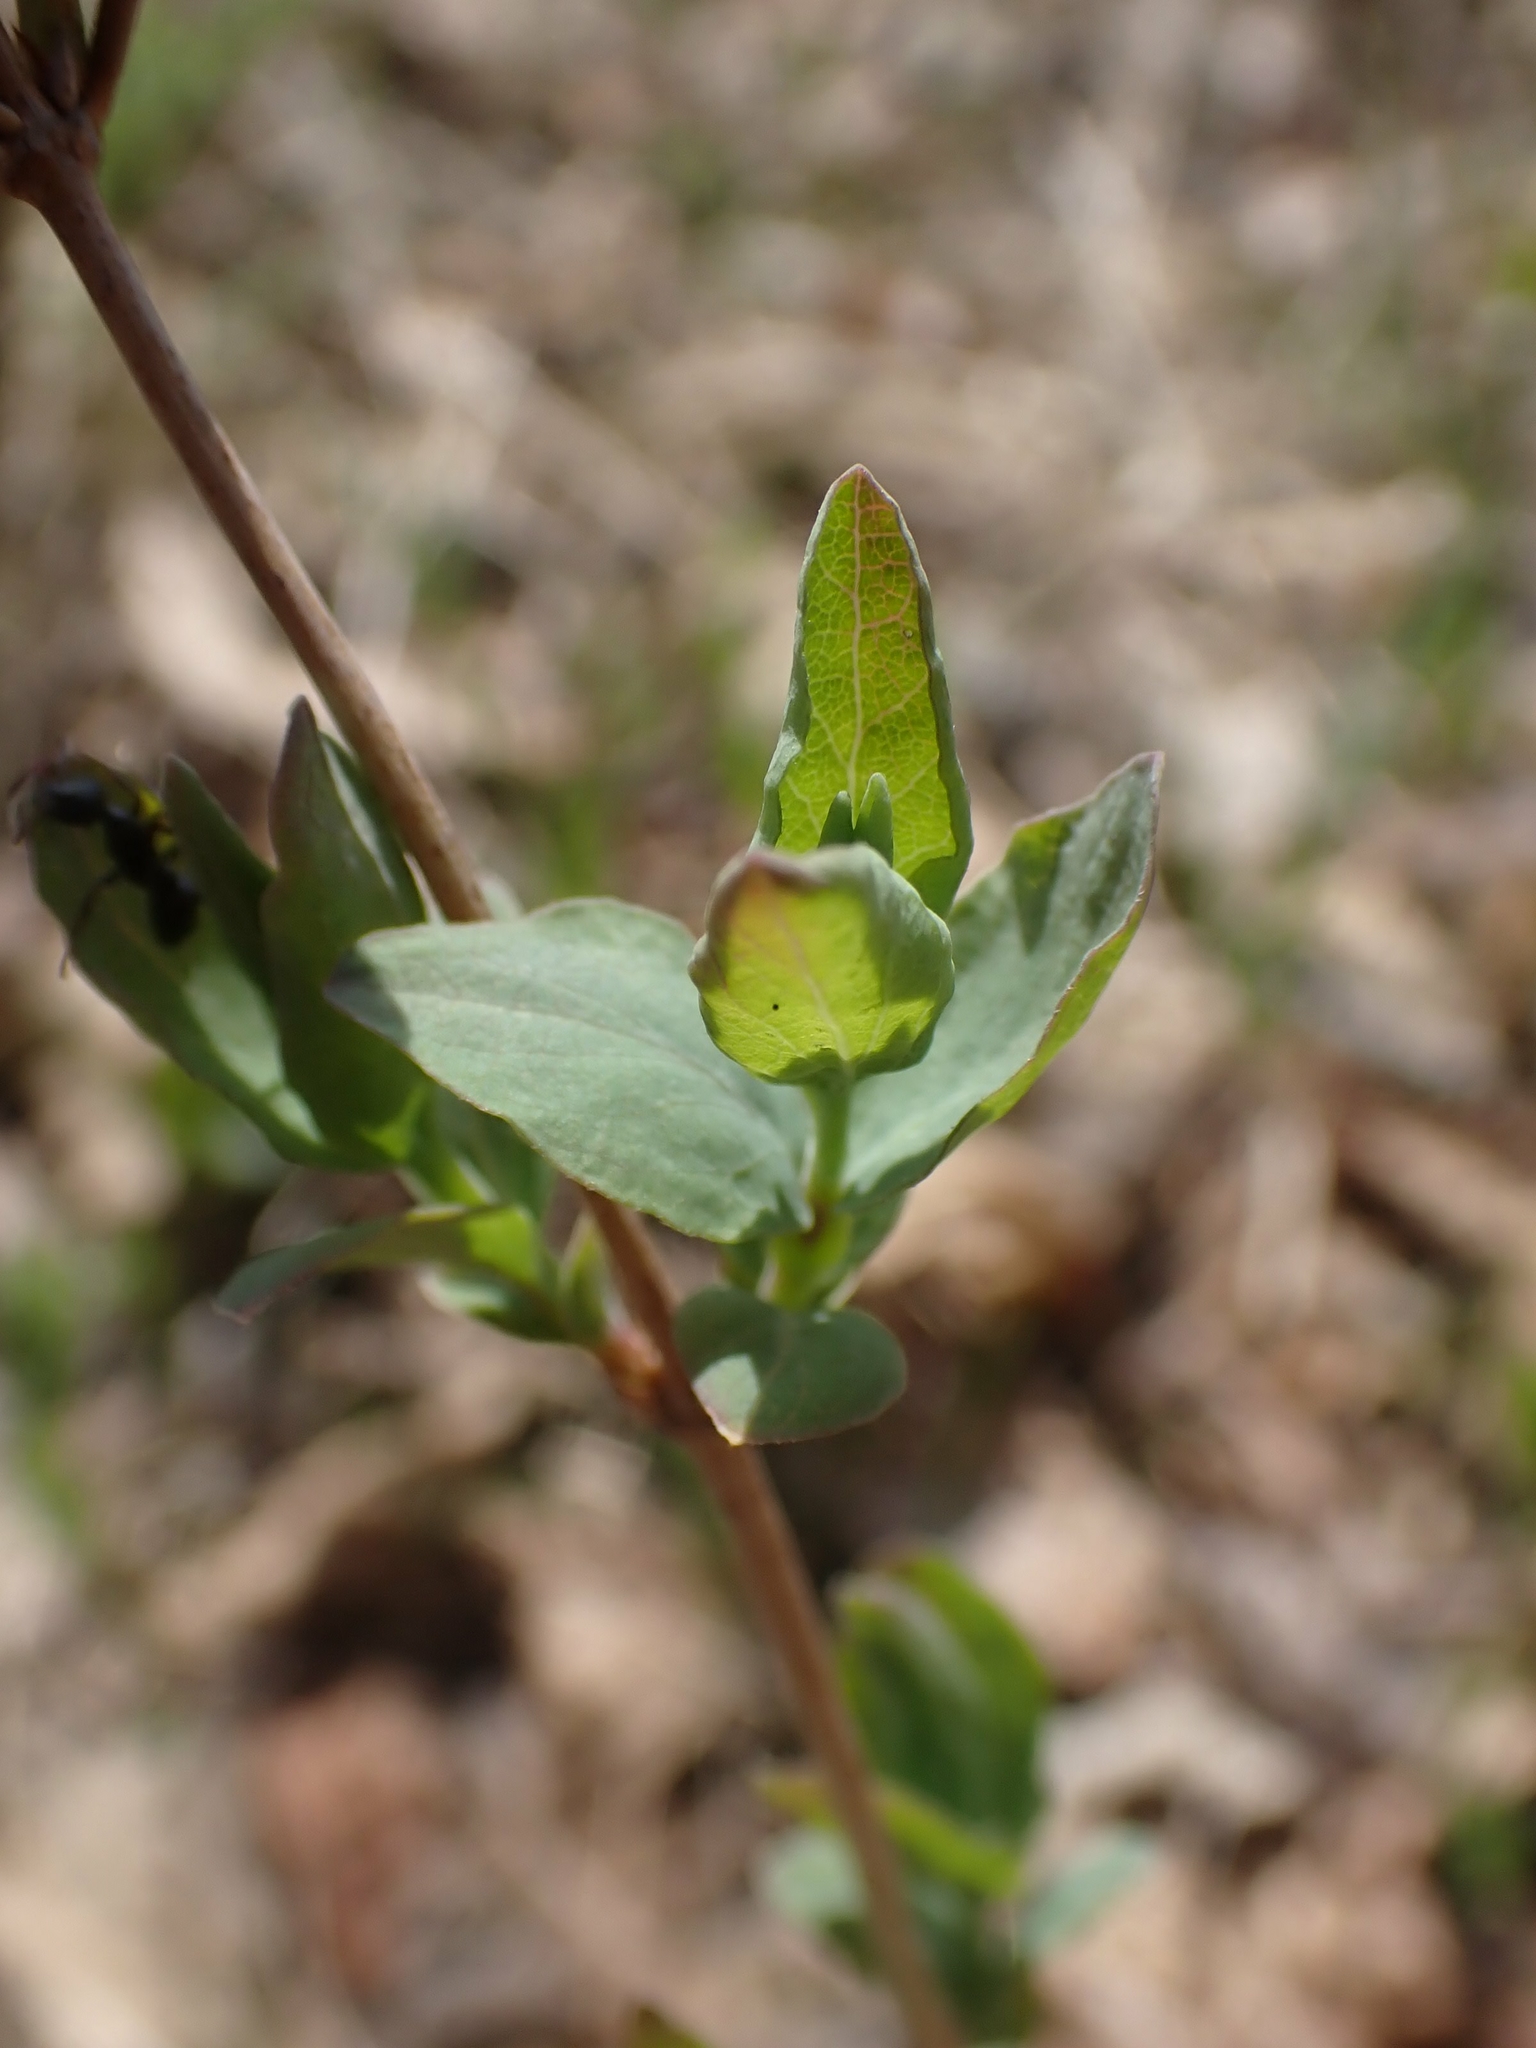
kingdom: Plantae
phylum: Tracheophyta
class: Magnoliopsida
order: Dipsacales
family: Caprifoliaceae
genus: Symphoricarpos
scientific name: Symphoricarpos occidentalis
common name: Wolfberry
